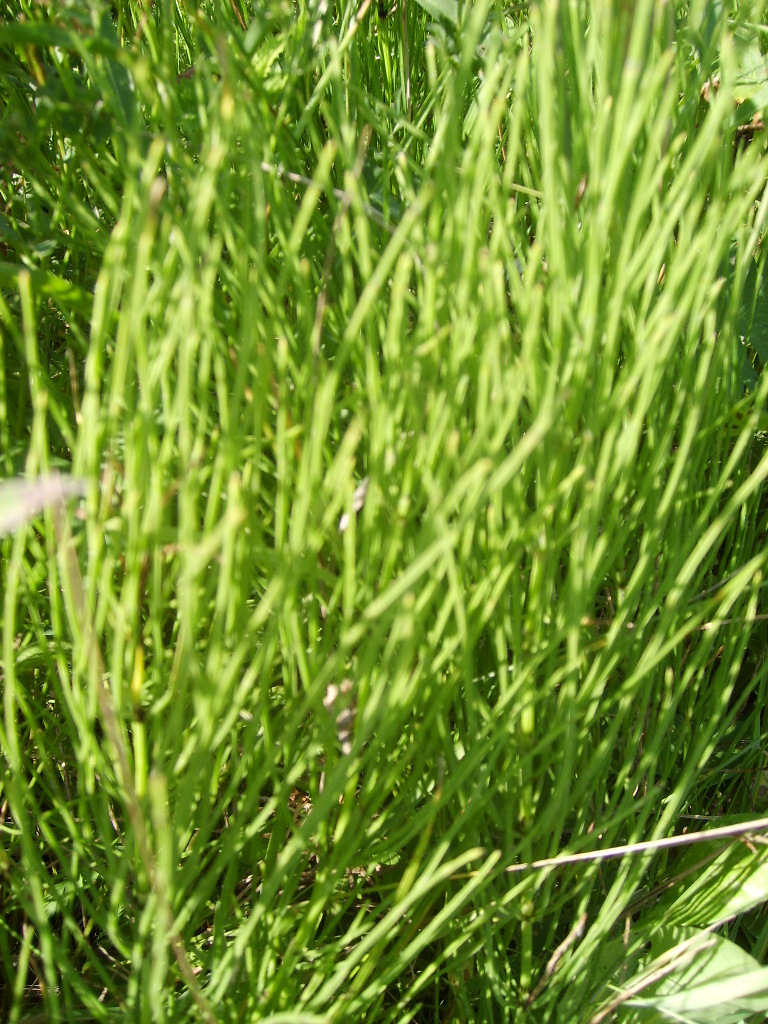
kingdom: Plantae
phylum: Tracheophyta
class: Polypodiopsida
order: Equisetales
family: Equisetaceae
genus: Equisetum
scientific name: Equisetum arvense
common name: Field horsetail
